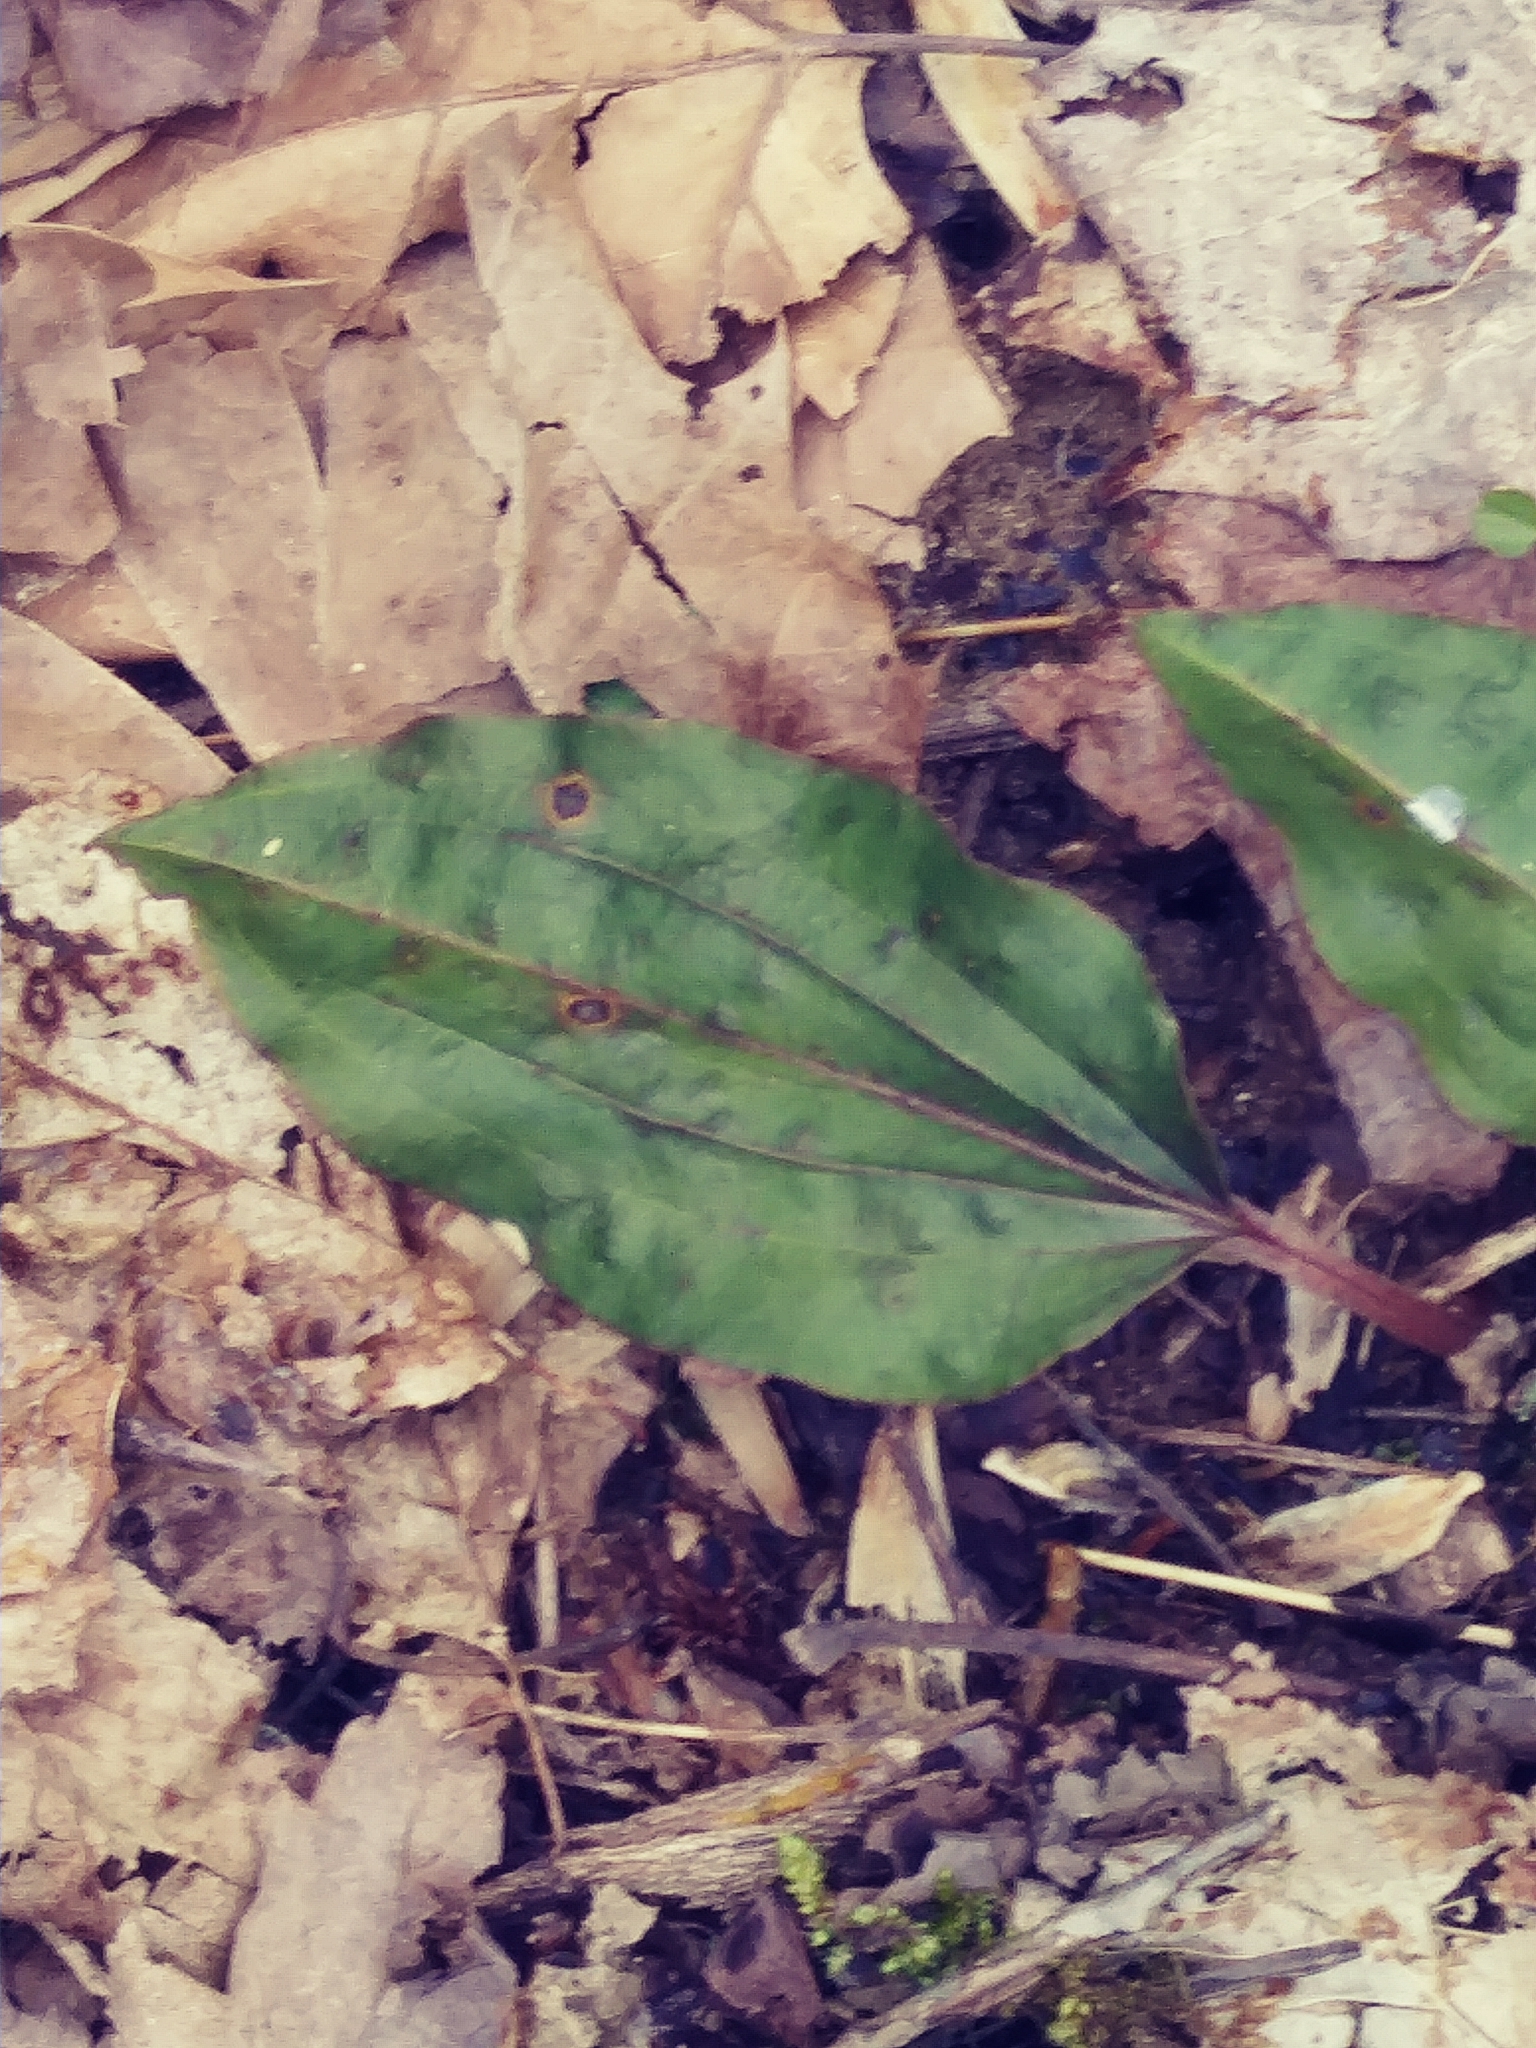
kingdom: Plantae
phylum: Tracheophyta
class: Liliopsida
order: Asparagales
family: Orchidaceae
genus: Tipularia
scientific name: Tipularia discolor
